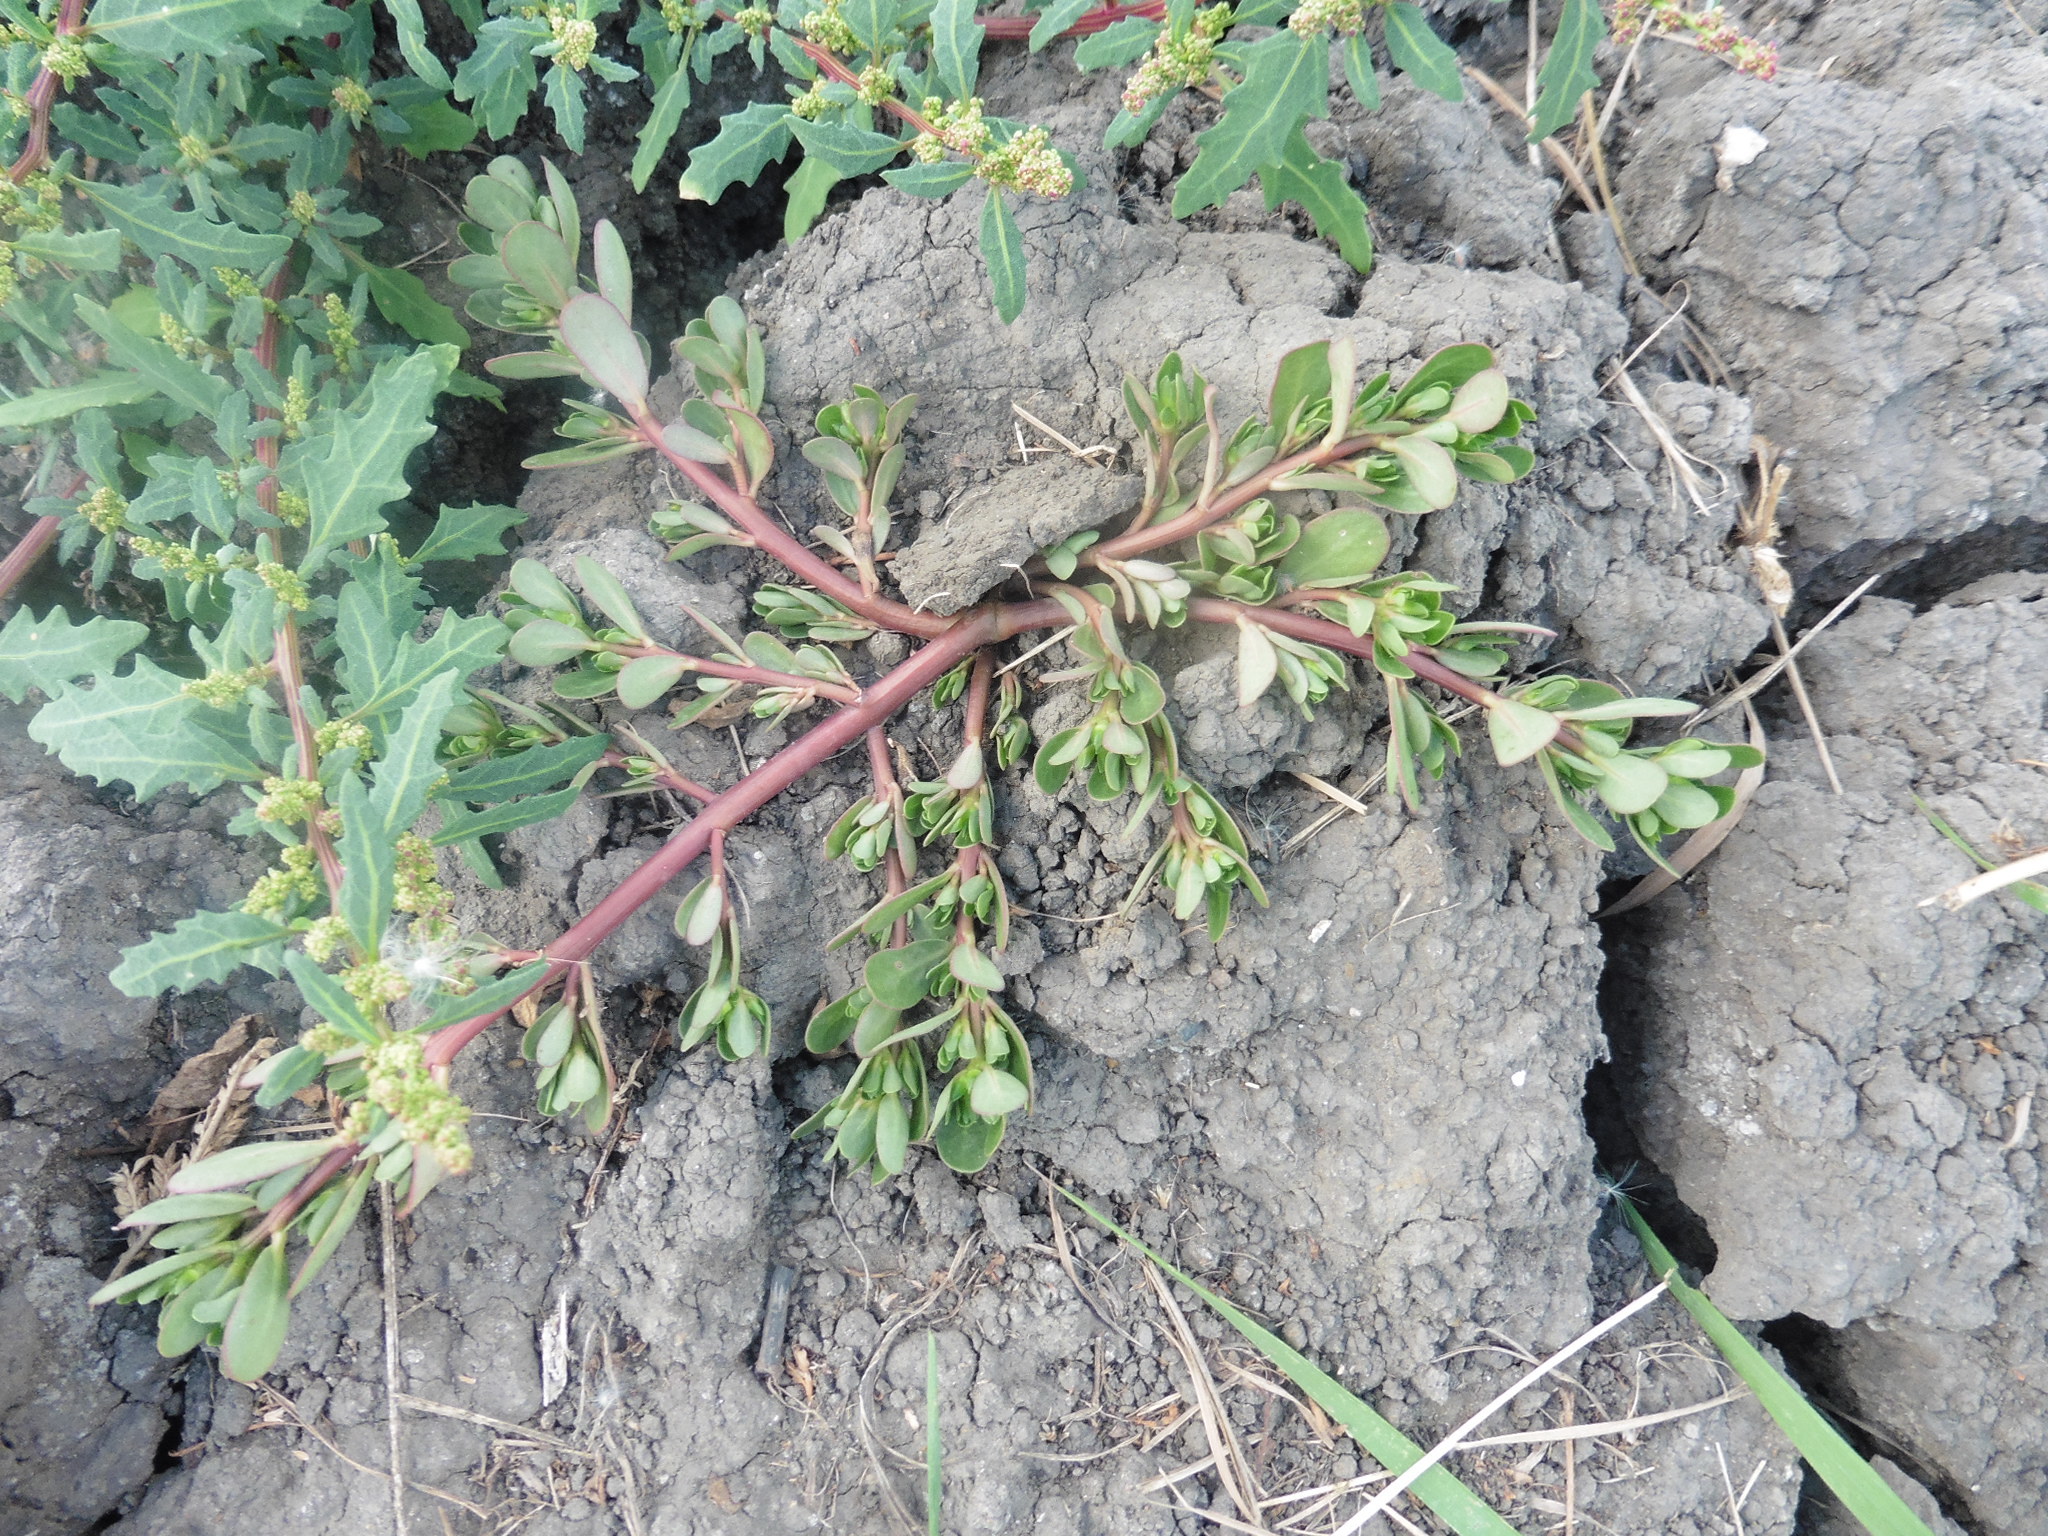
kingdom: Plantae
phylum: Tracheophyta
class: Magnoliopsida
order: Caryophyllales
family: Portulacaceae
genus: Portulaca
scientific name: Portulaca oleracea
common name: Common purslane
